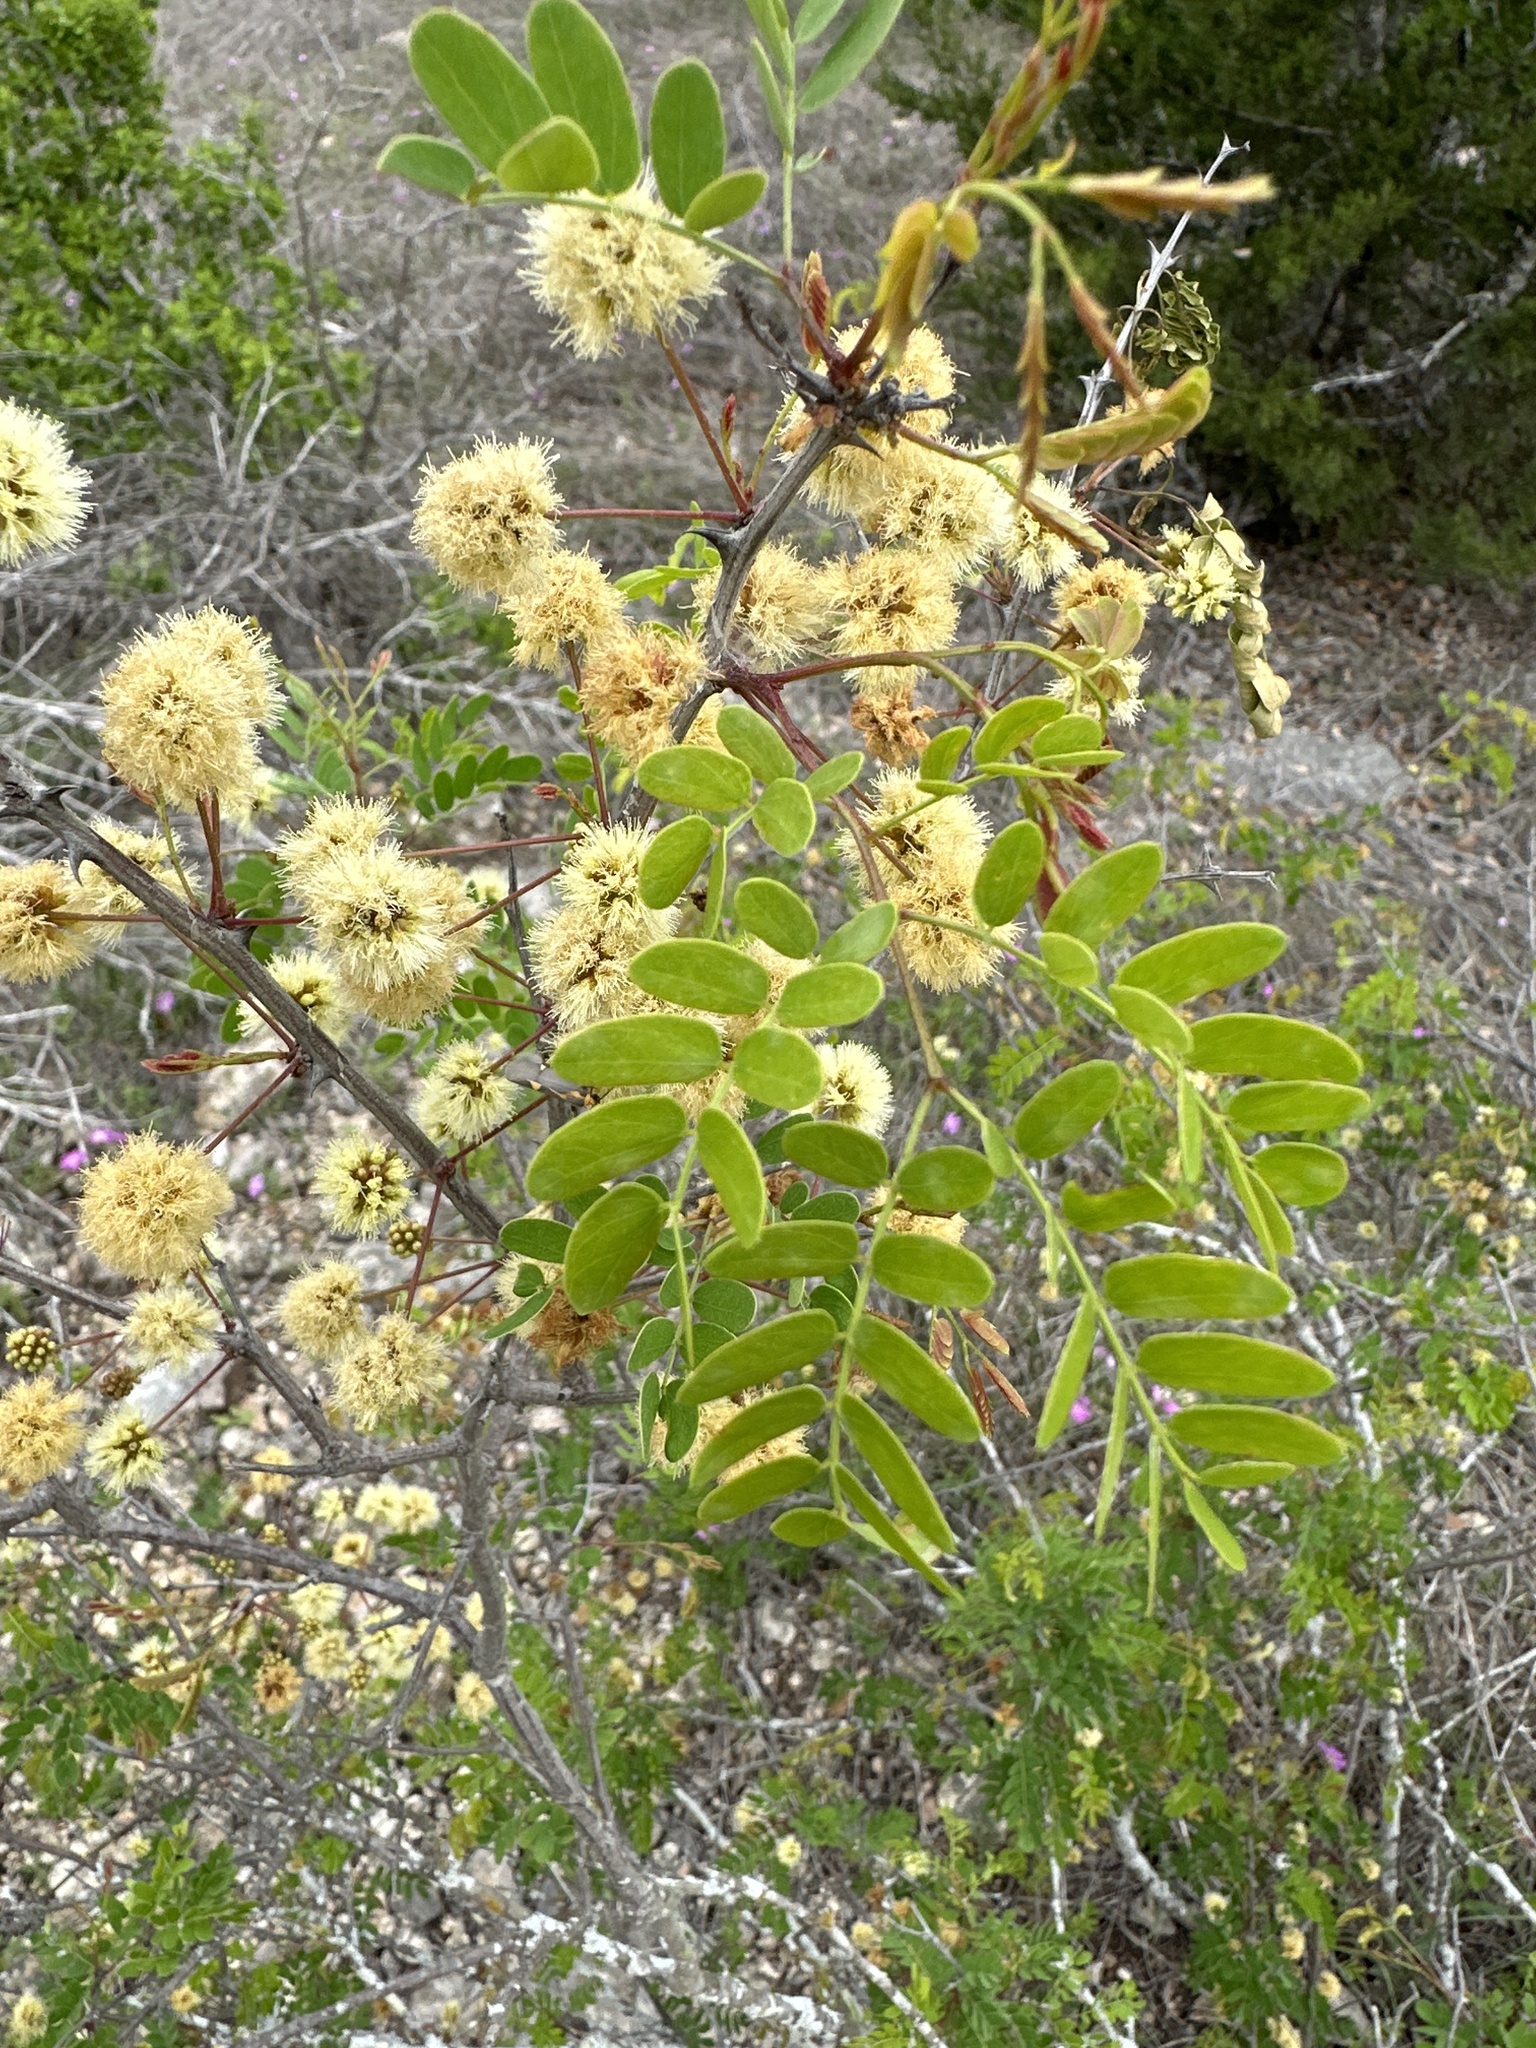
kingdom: Plantae
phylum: Tracheophyta
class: Magnoliopsida
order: Fabales
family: Fabaceae
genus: Senegalia
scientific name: Senegalia roemeriana
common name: Roemer's acacia
